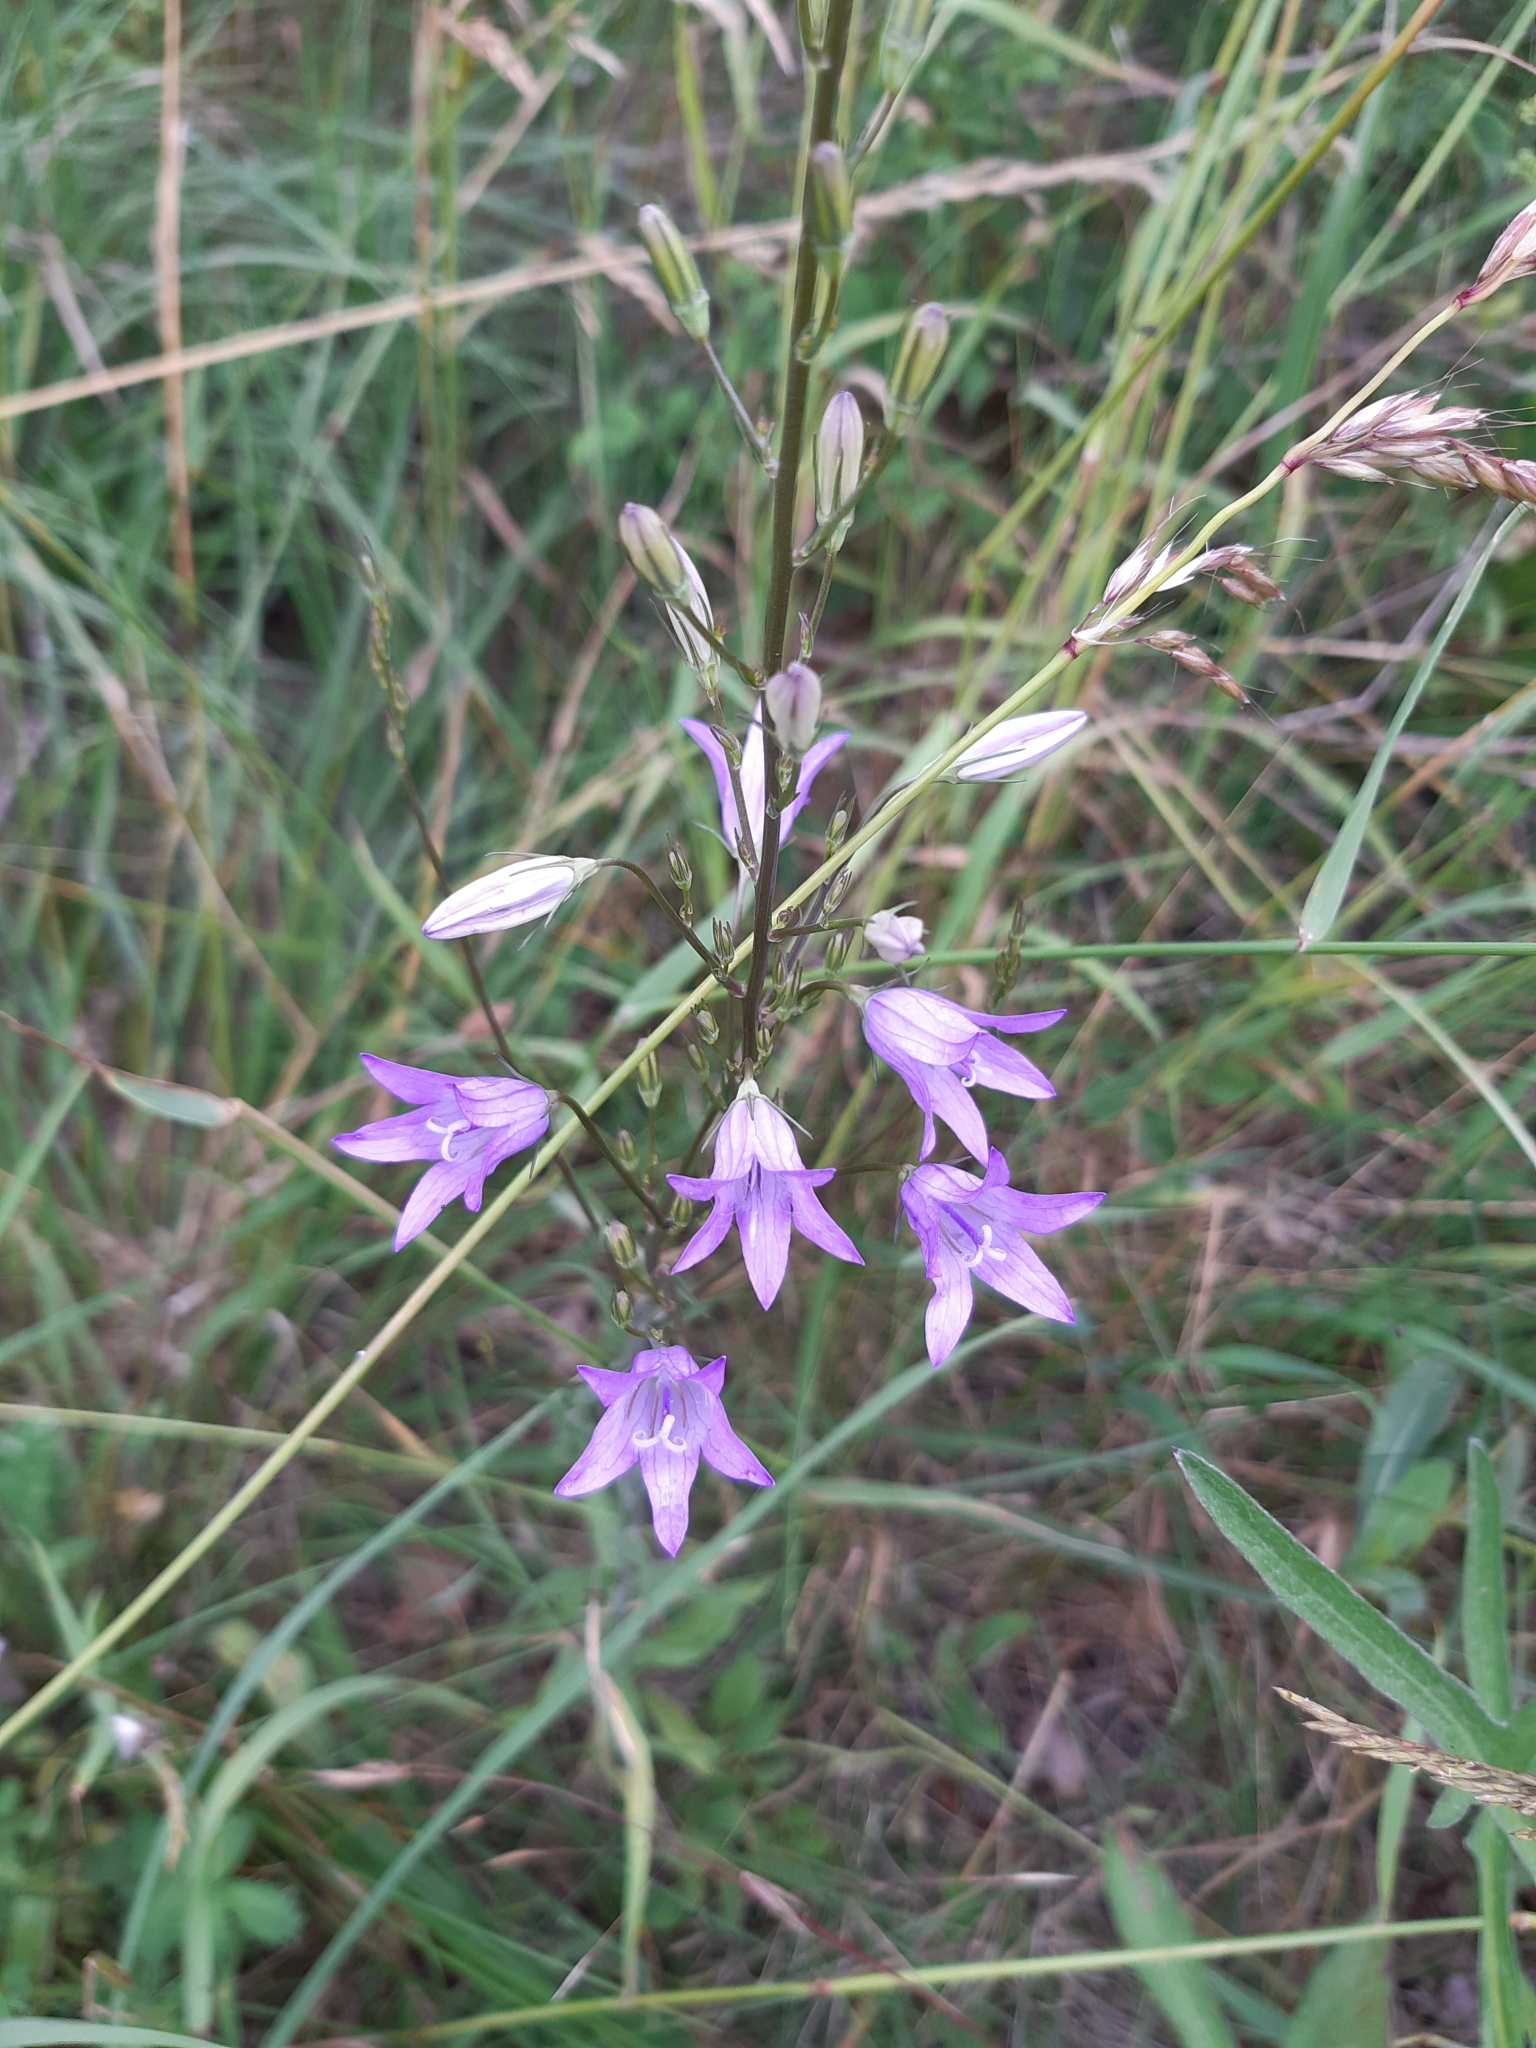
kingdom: Plantae
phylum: Tracheophyta
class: Magnoliopsida
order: Asterales
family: Campanulaceae
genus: Campanula
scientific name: Campanula rapunculus
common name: Rampion bellflower
